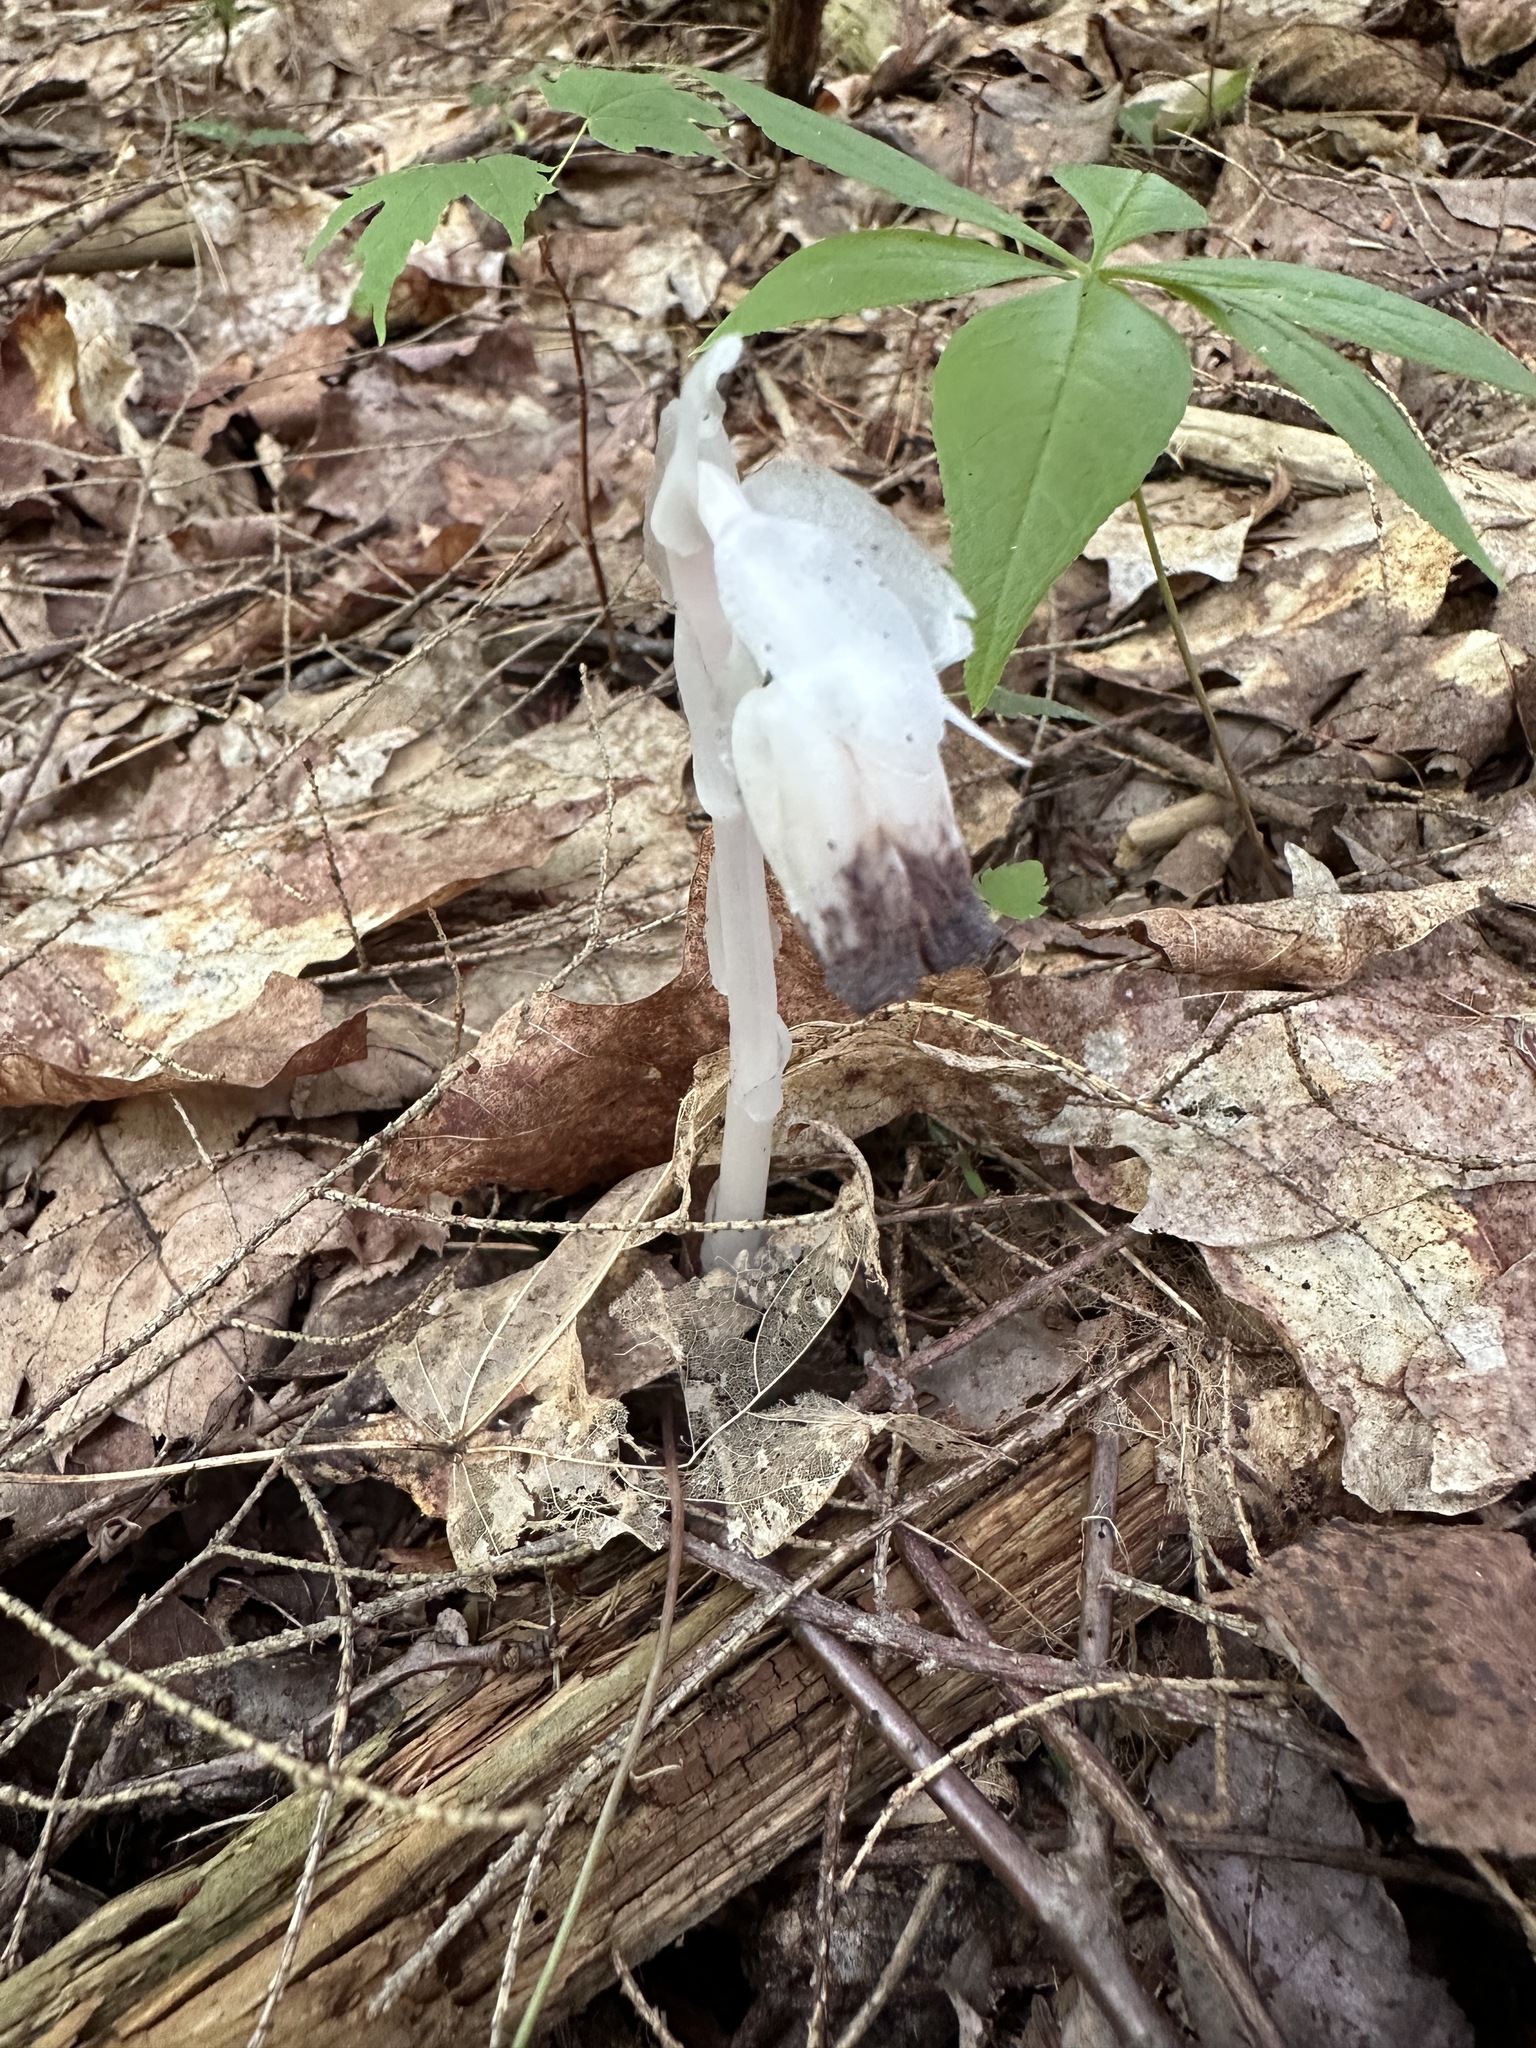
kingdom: Plantae
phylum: Tracheophyta
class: Magnoliopsida
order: Ericales
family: Ericaceae
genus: Monotropa
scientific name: Monotropa uniflora
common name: Convulsion root
